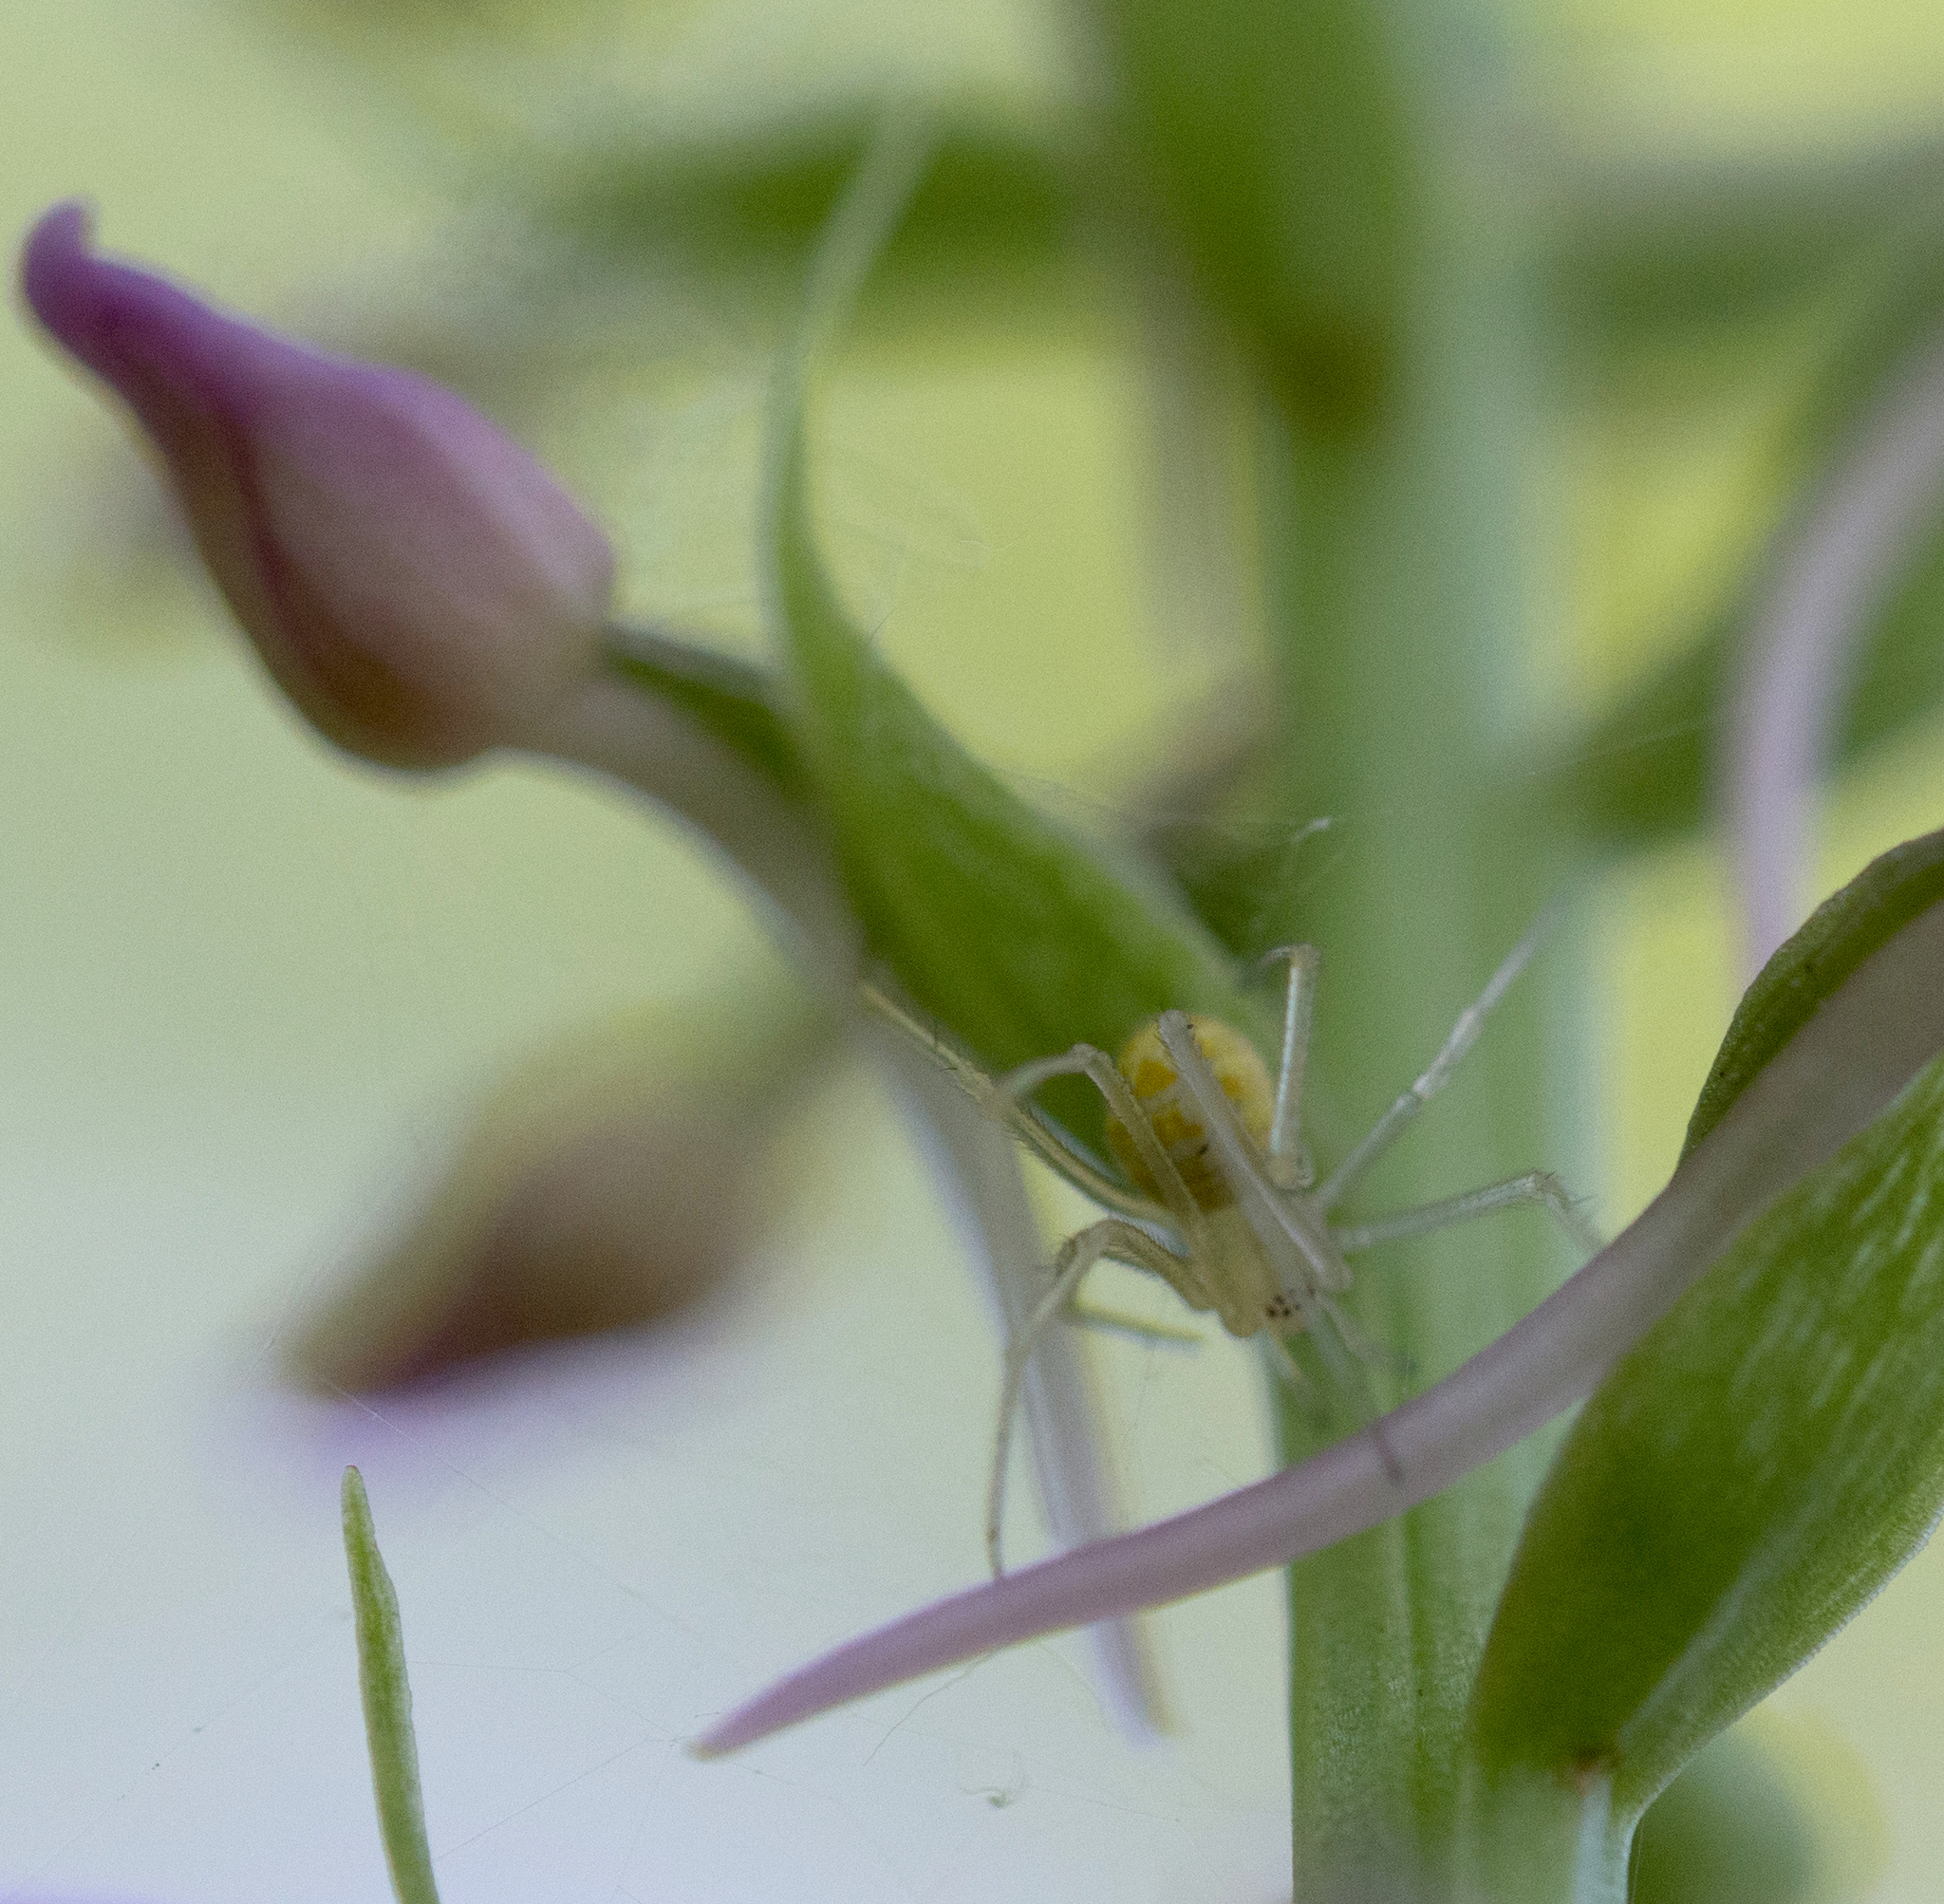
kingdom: Animalia
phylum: Arthropoda
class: Arachnida
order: Araneae
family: Theridiidae
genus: Heterotheridion
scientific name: Heterotheridion nigrovariegatum
